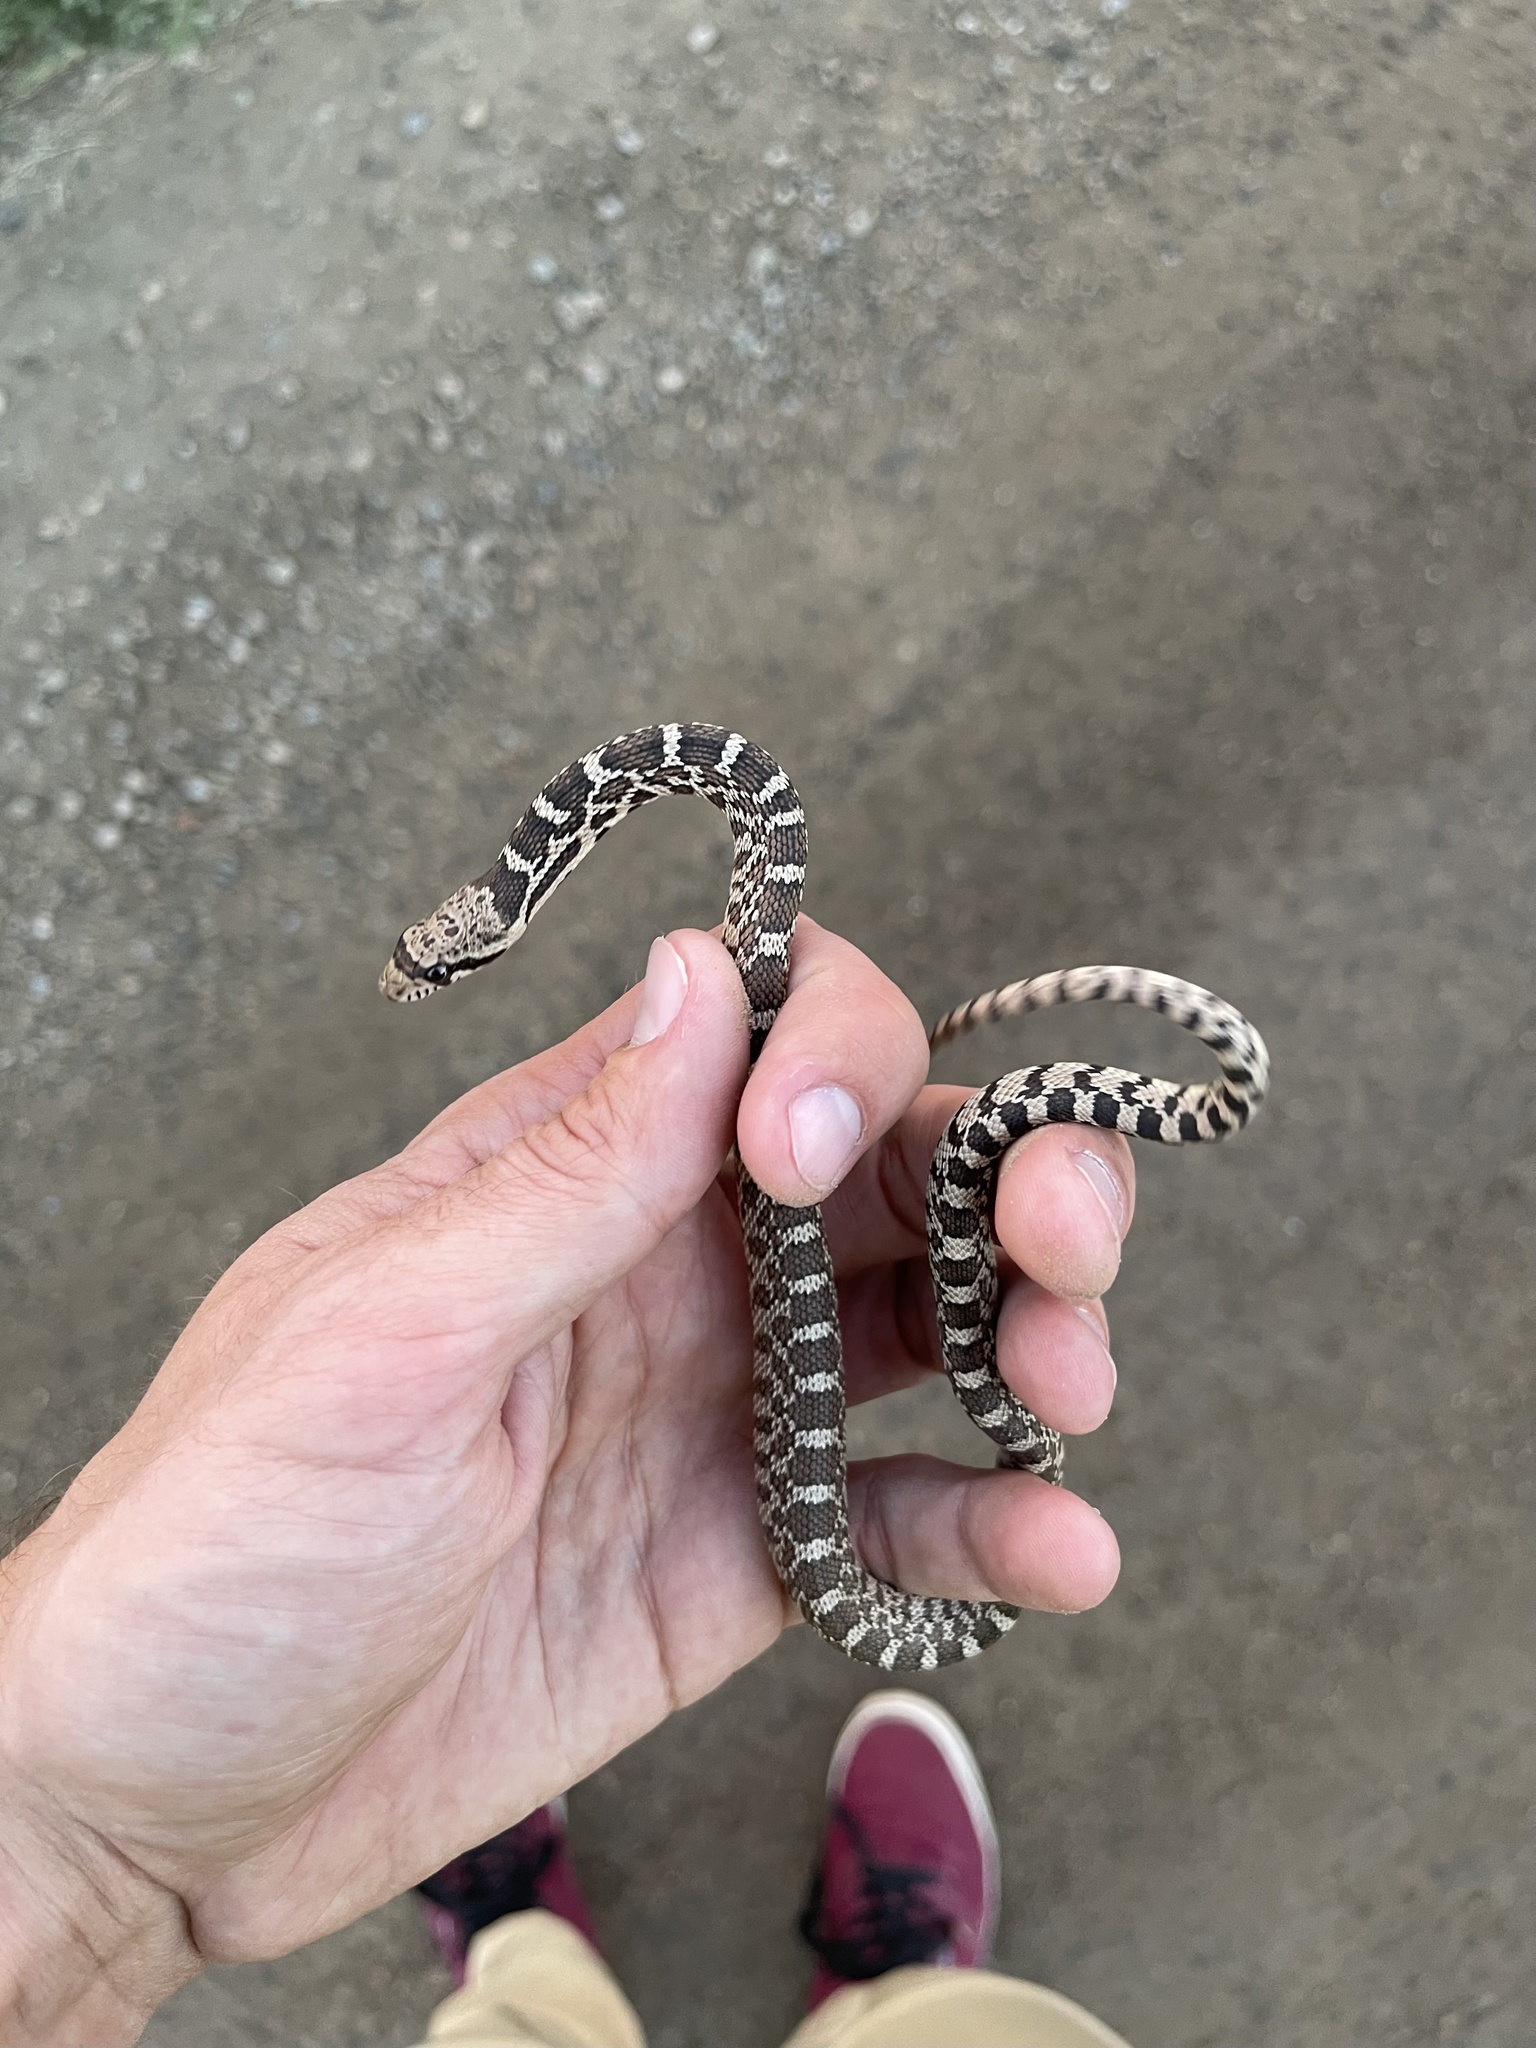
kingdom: Animalia
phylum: Chordata
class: Squamata
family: Colubridae
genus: Pituophis
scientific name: Pituophis catenifer
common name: Gopher snake
